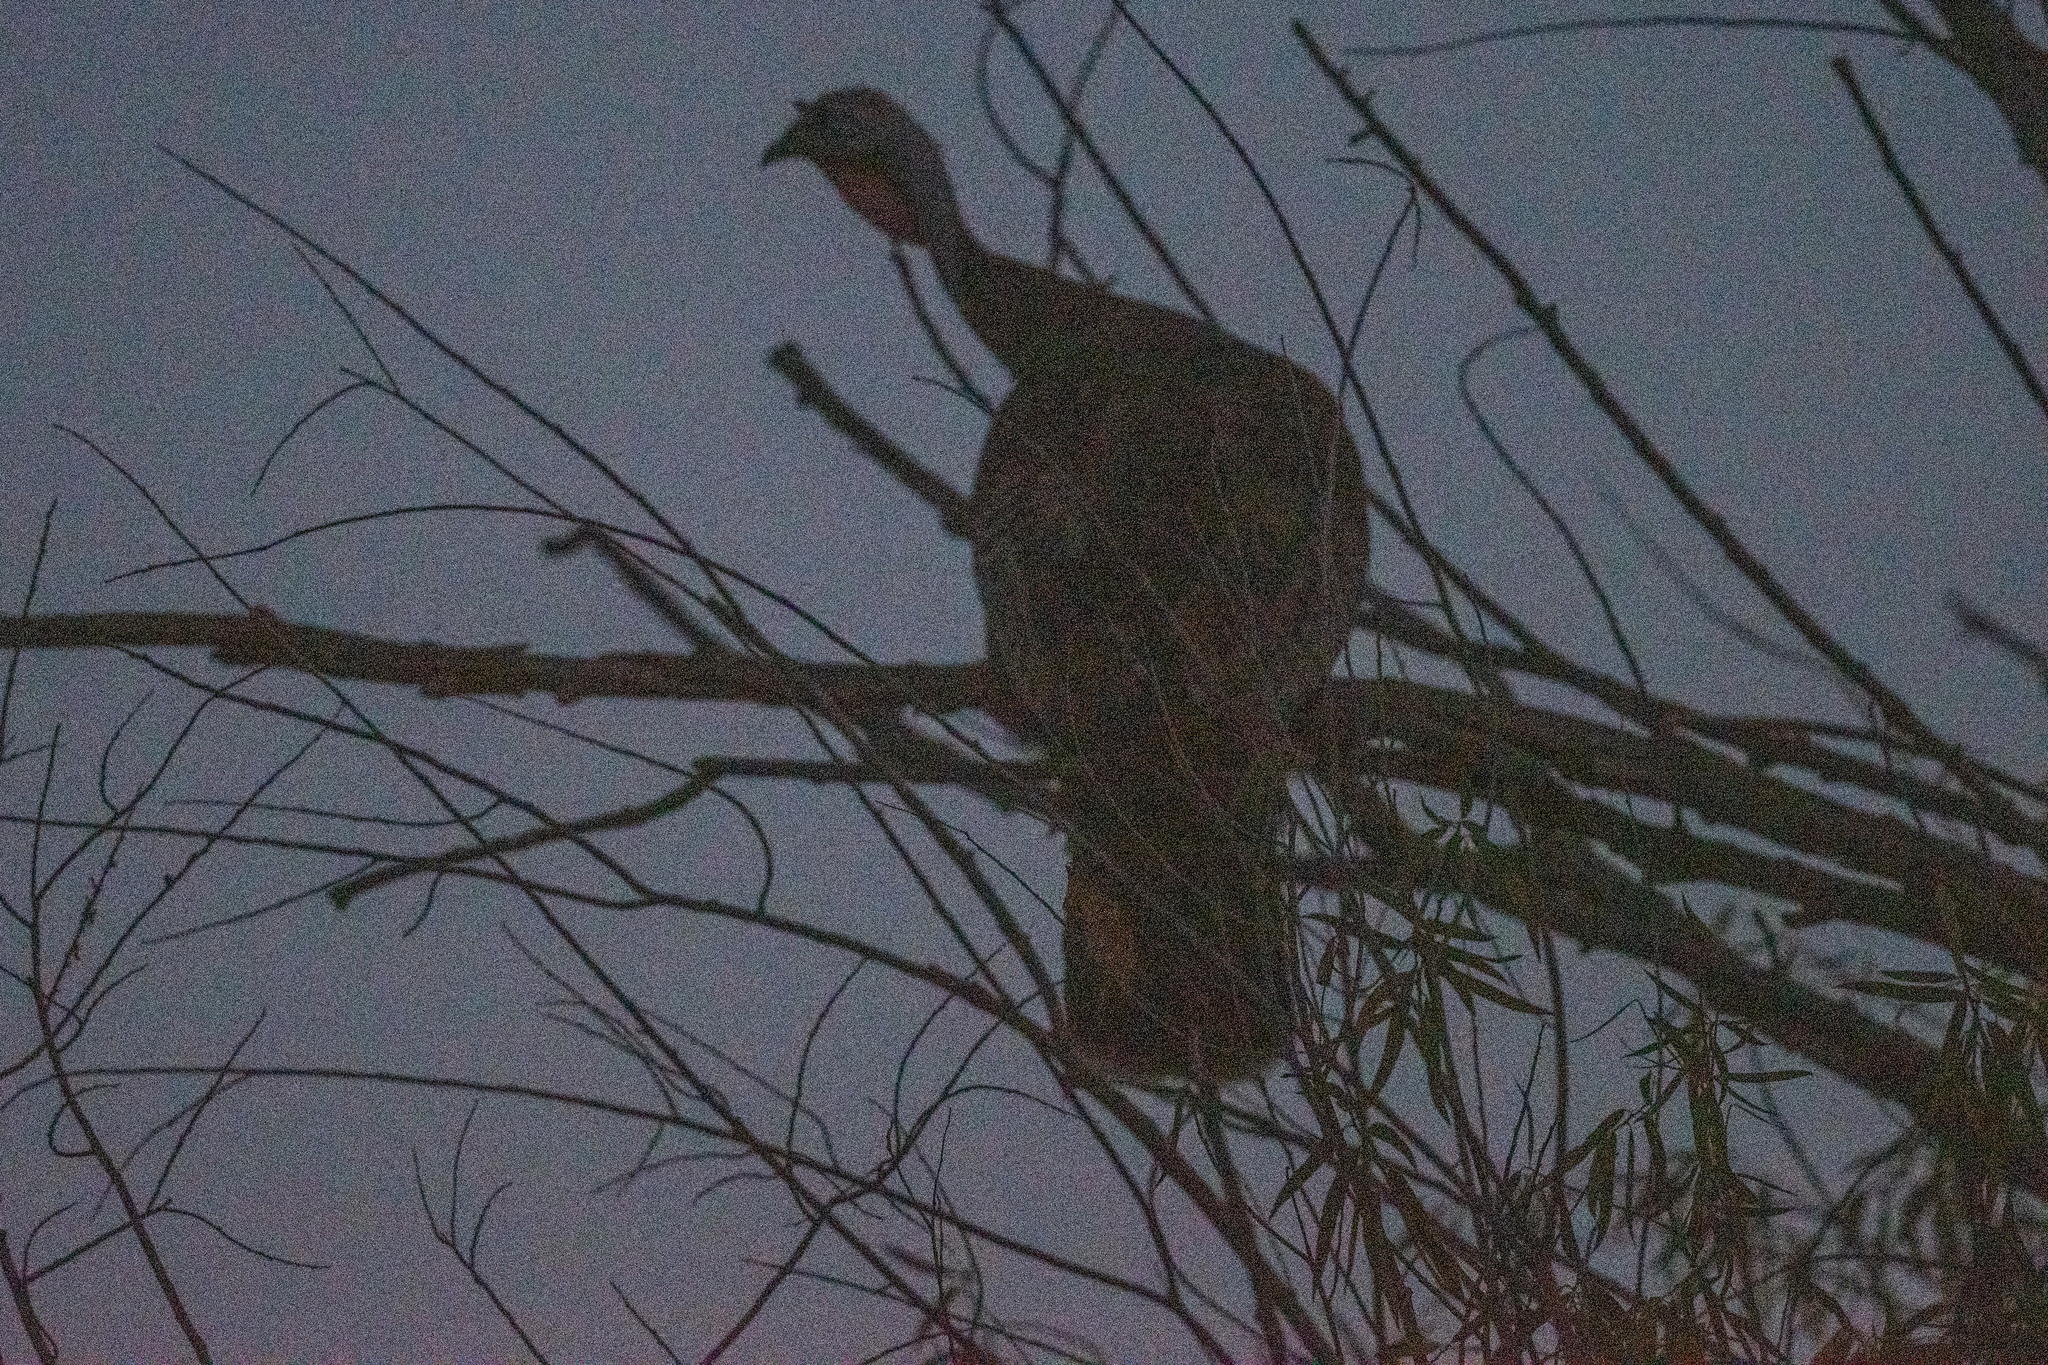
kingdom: Animalia
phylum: Chordata
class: Aves
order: Galliformes
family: Phasianidae
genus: Meleagris
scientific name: Meleagris gallopavo
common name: Wild turkey
